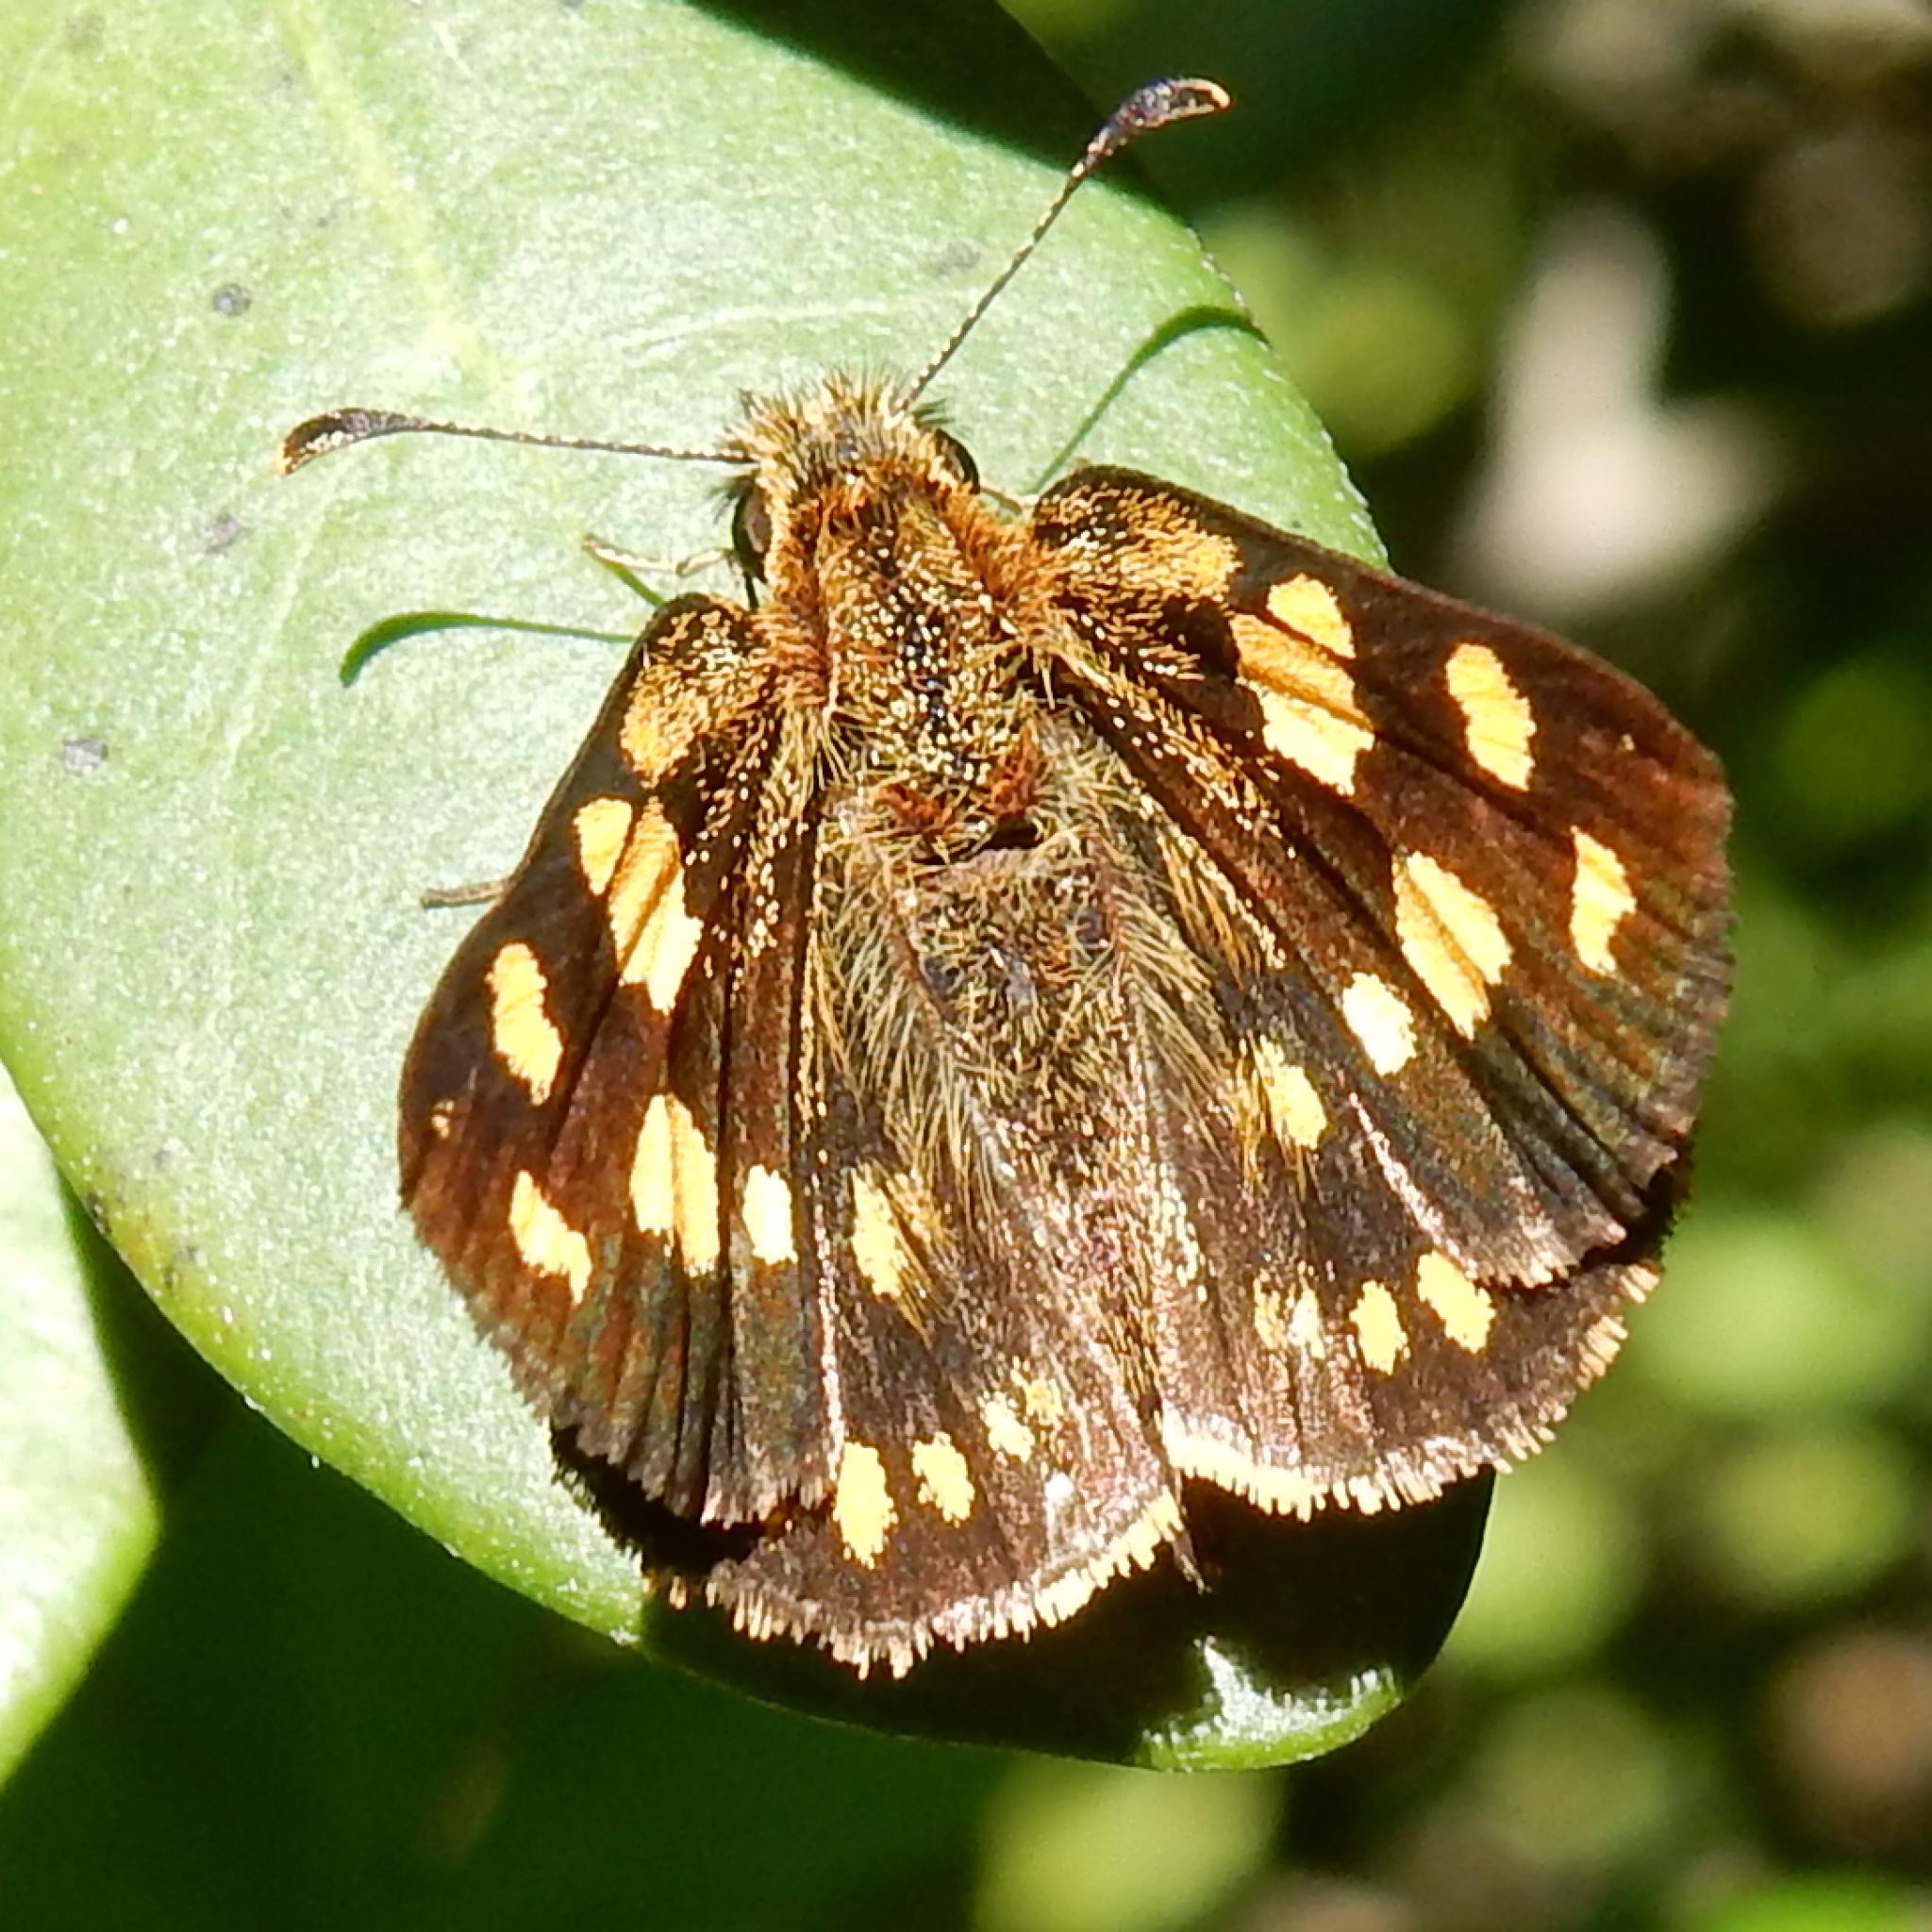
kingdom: Animalia
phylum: Arthropoda
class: Insecta
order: Lepidoptera
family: Hesperiidae
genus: Metisella
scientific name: Metisella metis
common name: Western gold-spotted sylph
